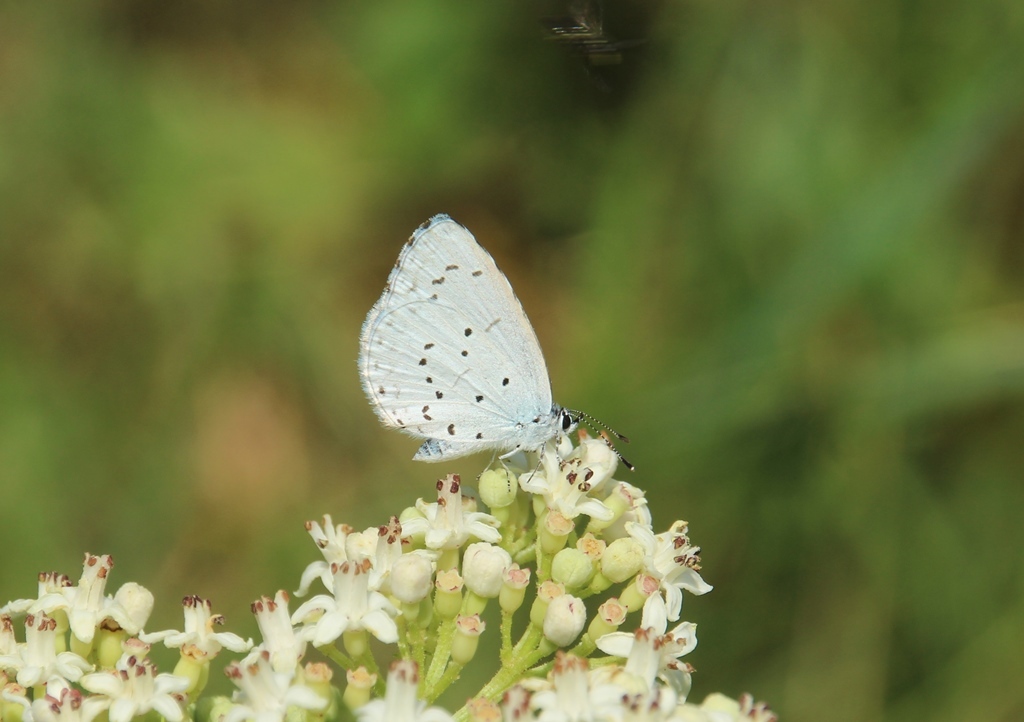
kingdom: Animalia
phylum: Arthropoda
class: Insecta
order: Lepidoptera
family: Lycaenidae
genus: Celastrina
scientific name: Celastrina argiolus
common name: Holly blue
